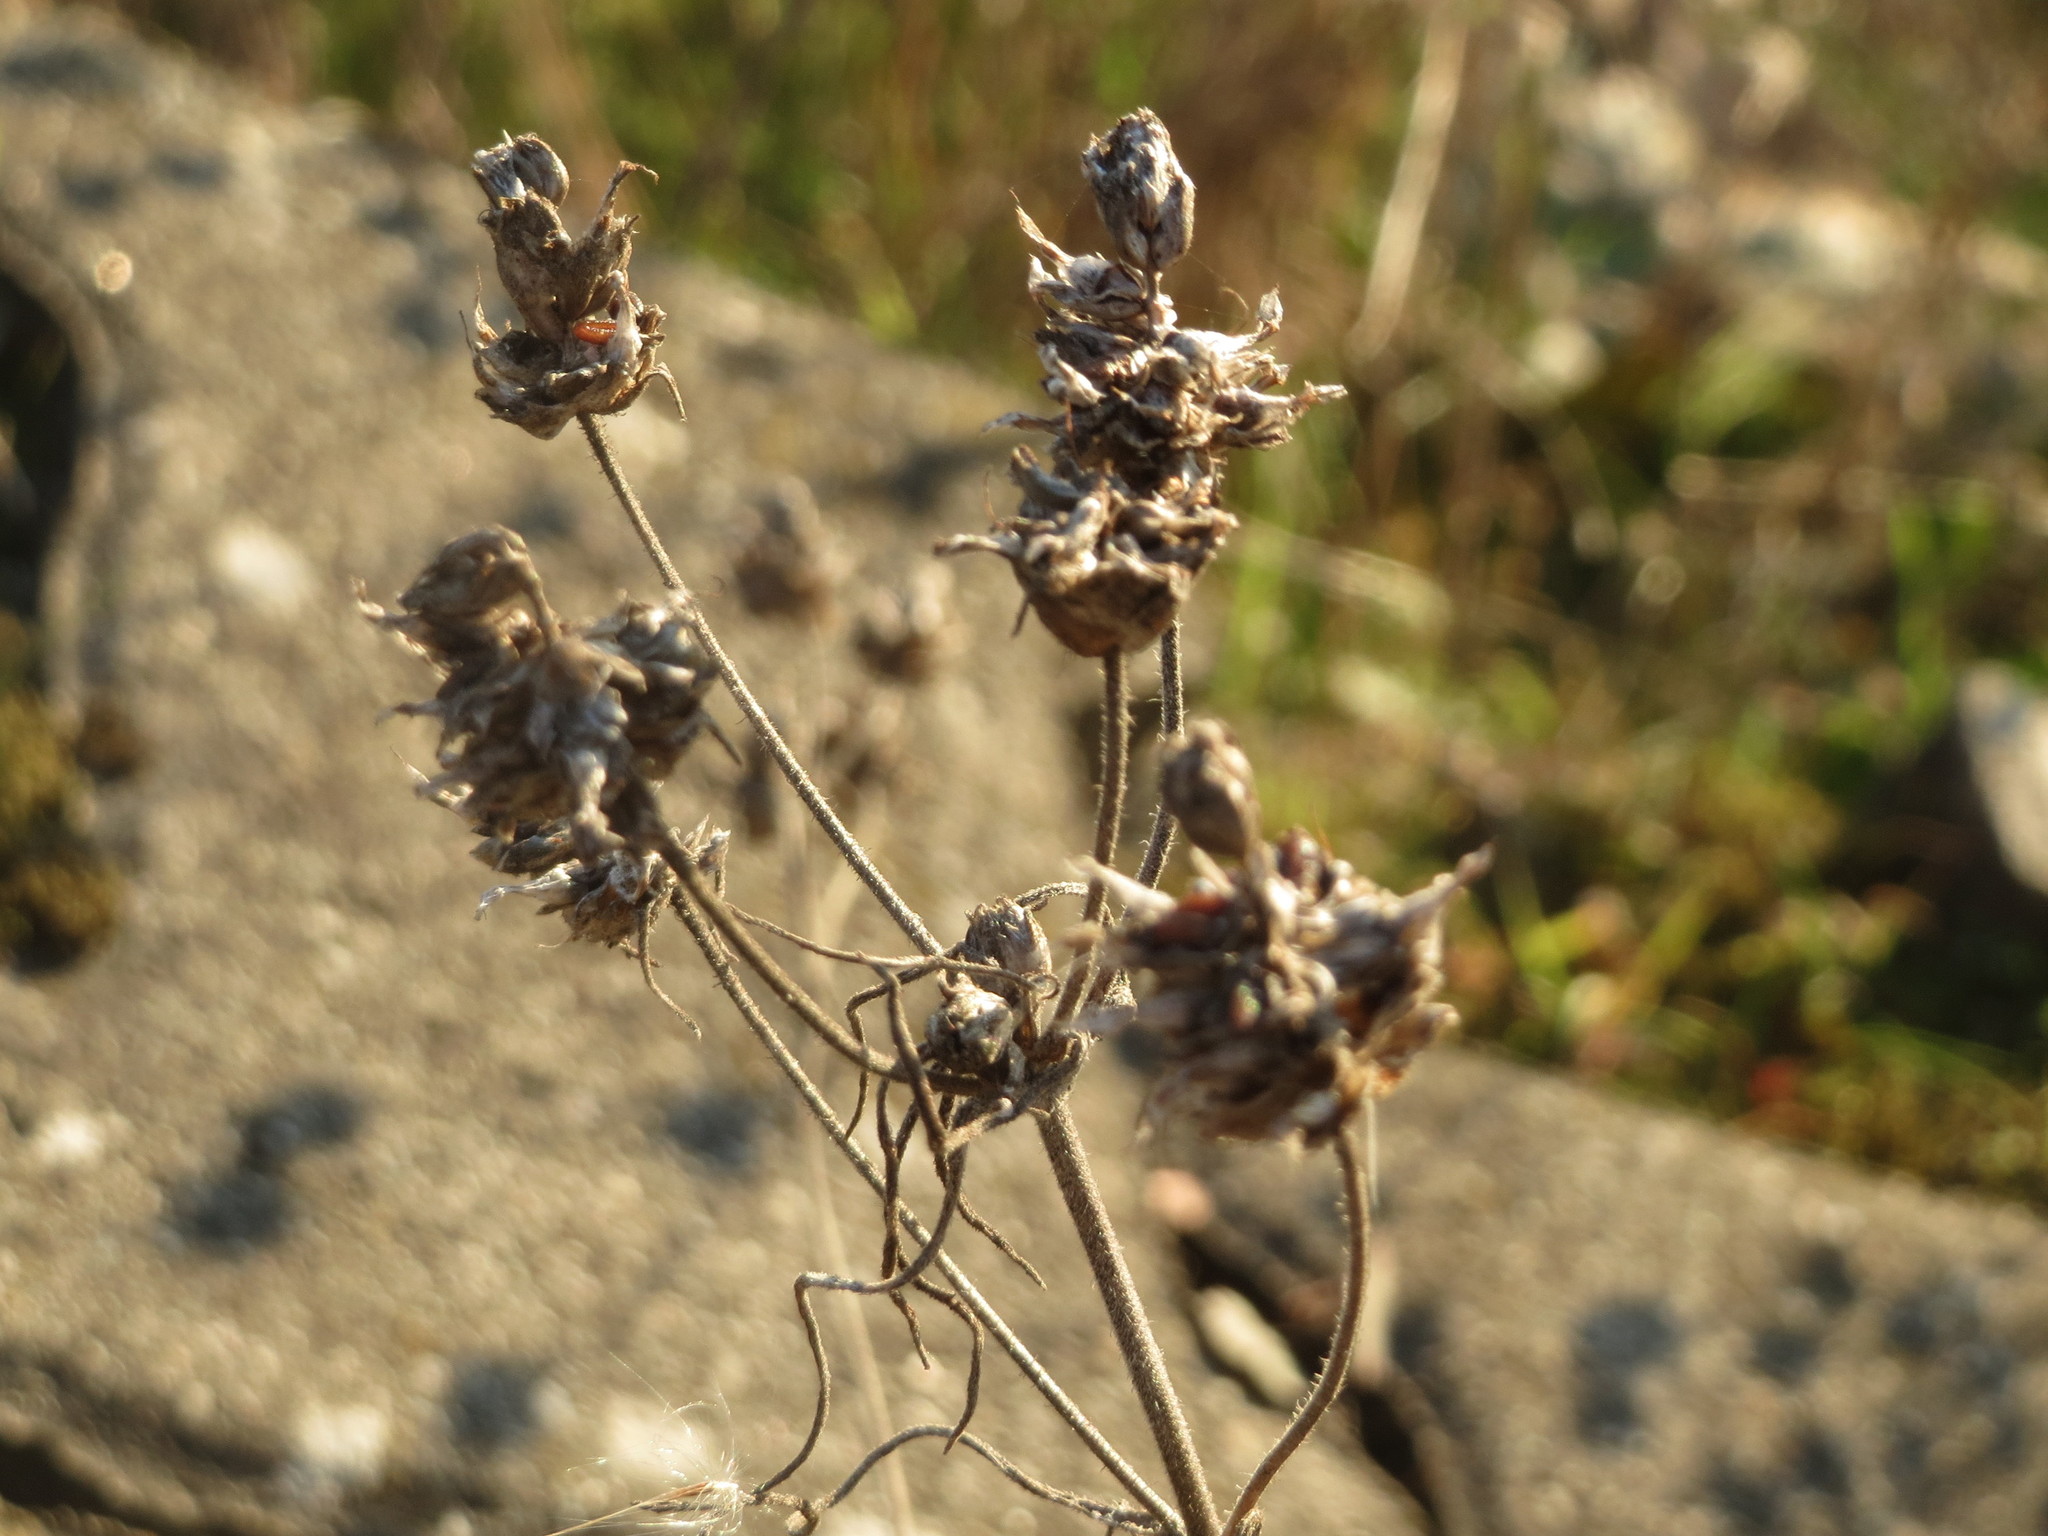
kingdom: Plantae
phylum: Tracheophyta
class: Magnoliopsida
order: Lamiales
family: Plantaginaceae
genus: Plantago
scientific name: Plantago arenaria
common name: Branched plantain
